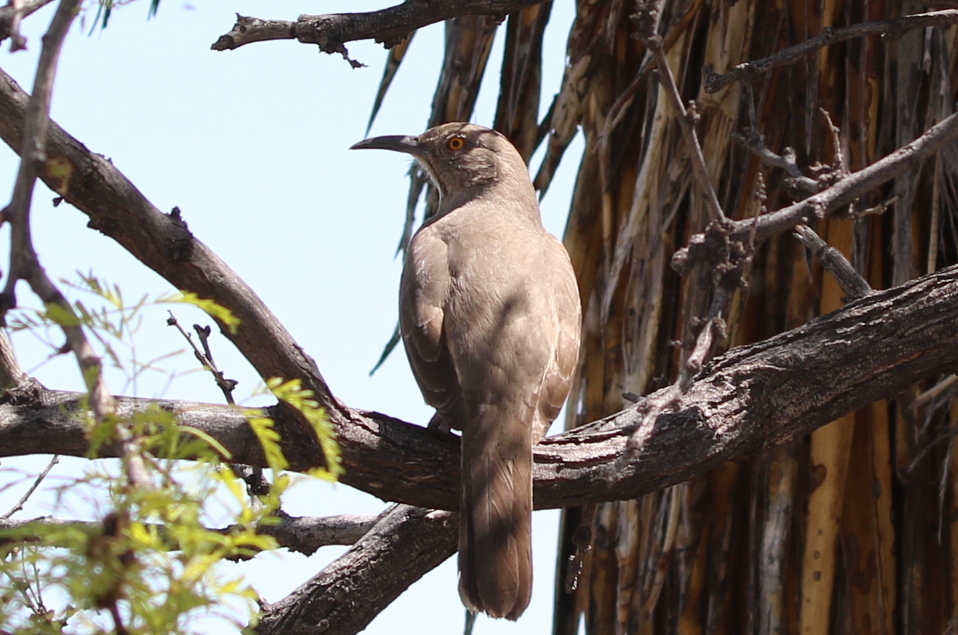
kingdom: Animalia
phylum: Chordata
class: Aves
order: Passeriformes
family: Mimidae
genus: Toxostoma
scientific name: Toxostoma curvirostre
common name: Curve-billed thrasher
